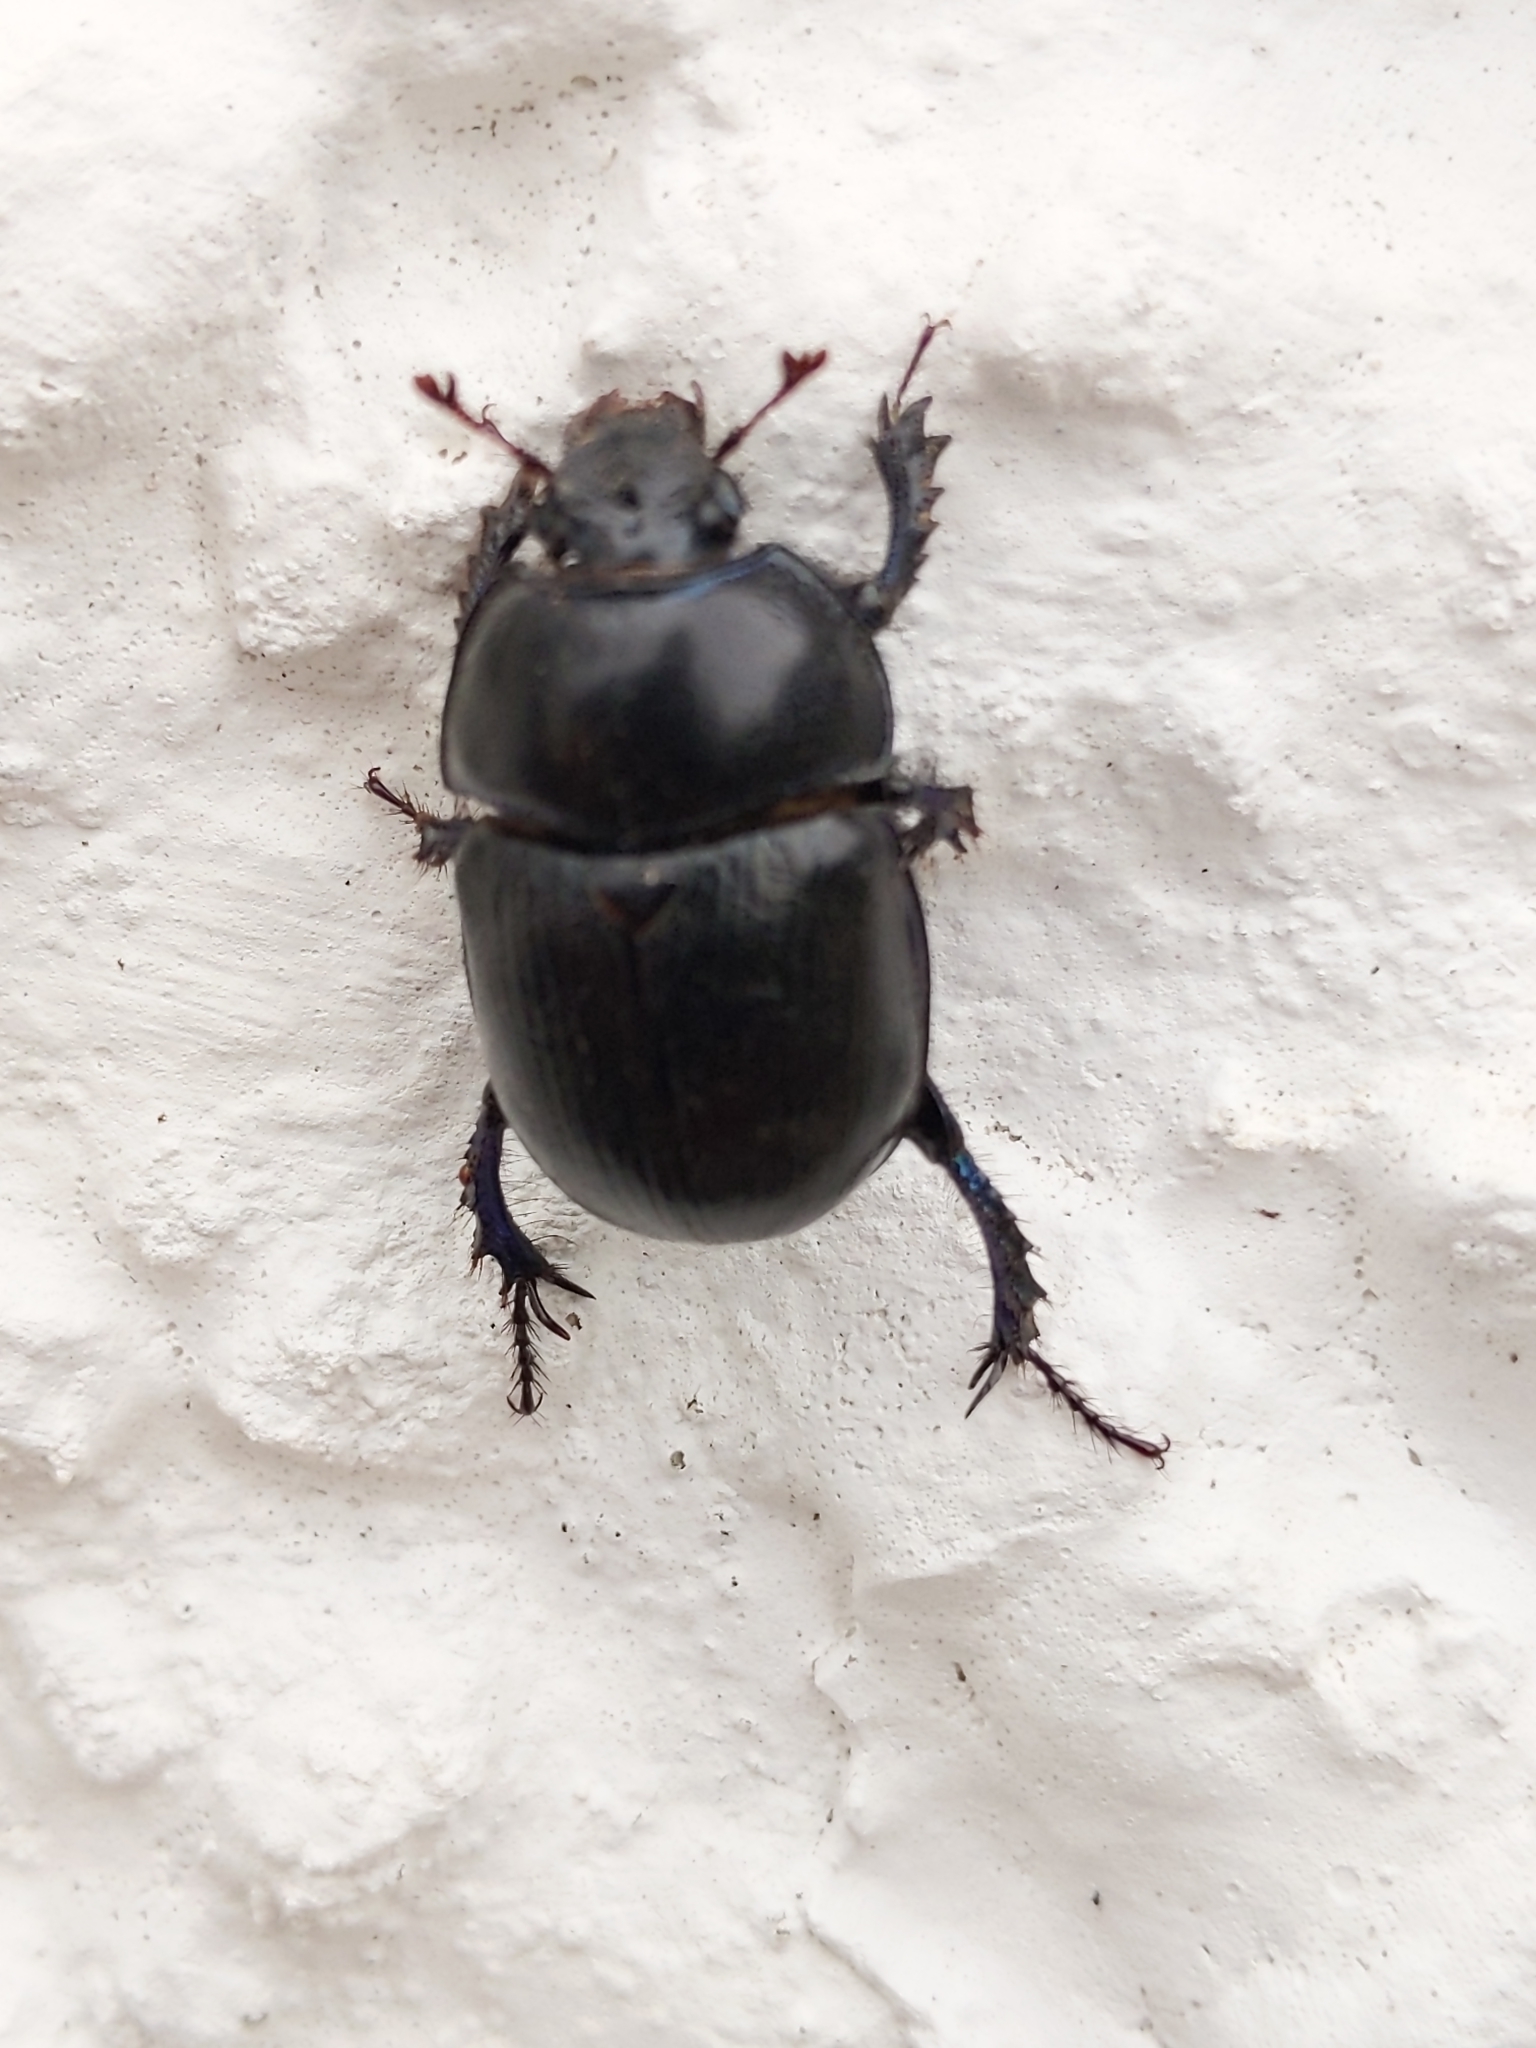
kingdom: Animalia
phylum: Arthropoda
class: Insecta
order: Coleoptera
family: Geotrupidae
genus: Anoplotrupes
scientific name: Anoplotrupes stercorosus
